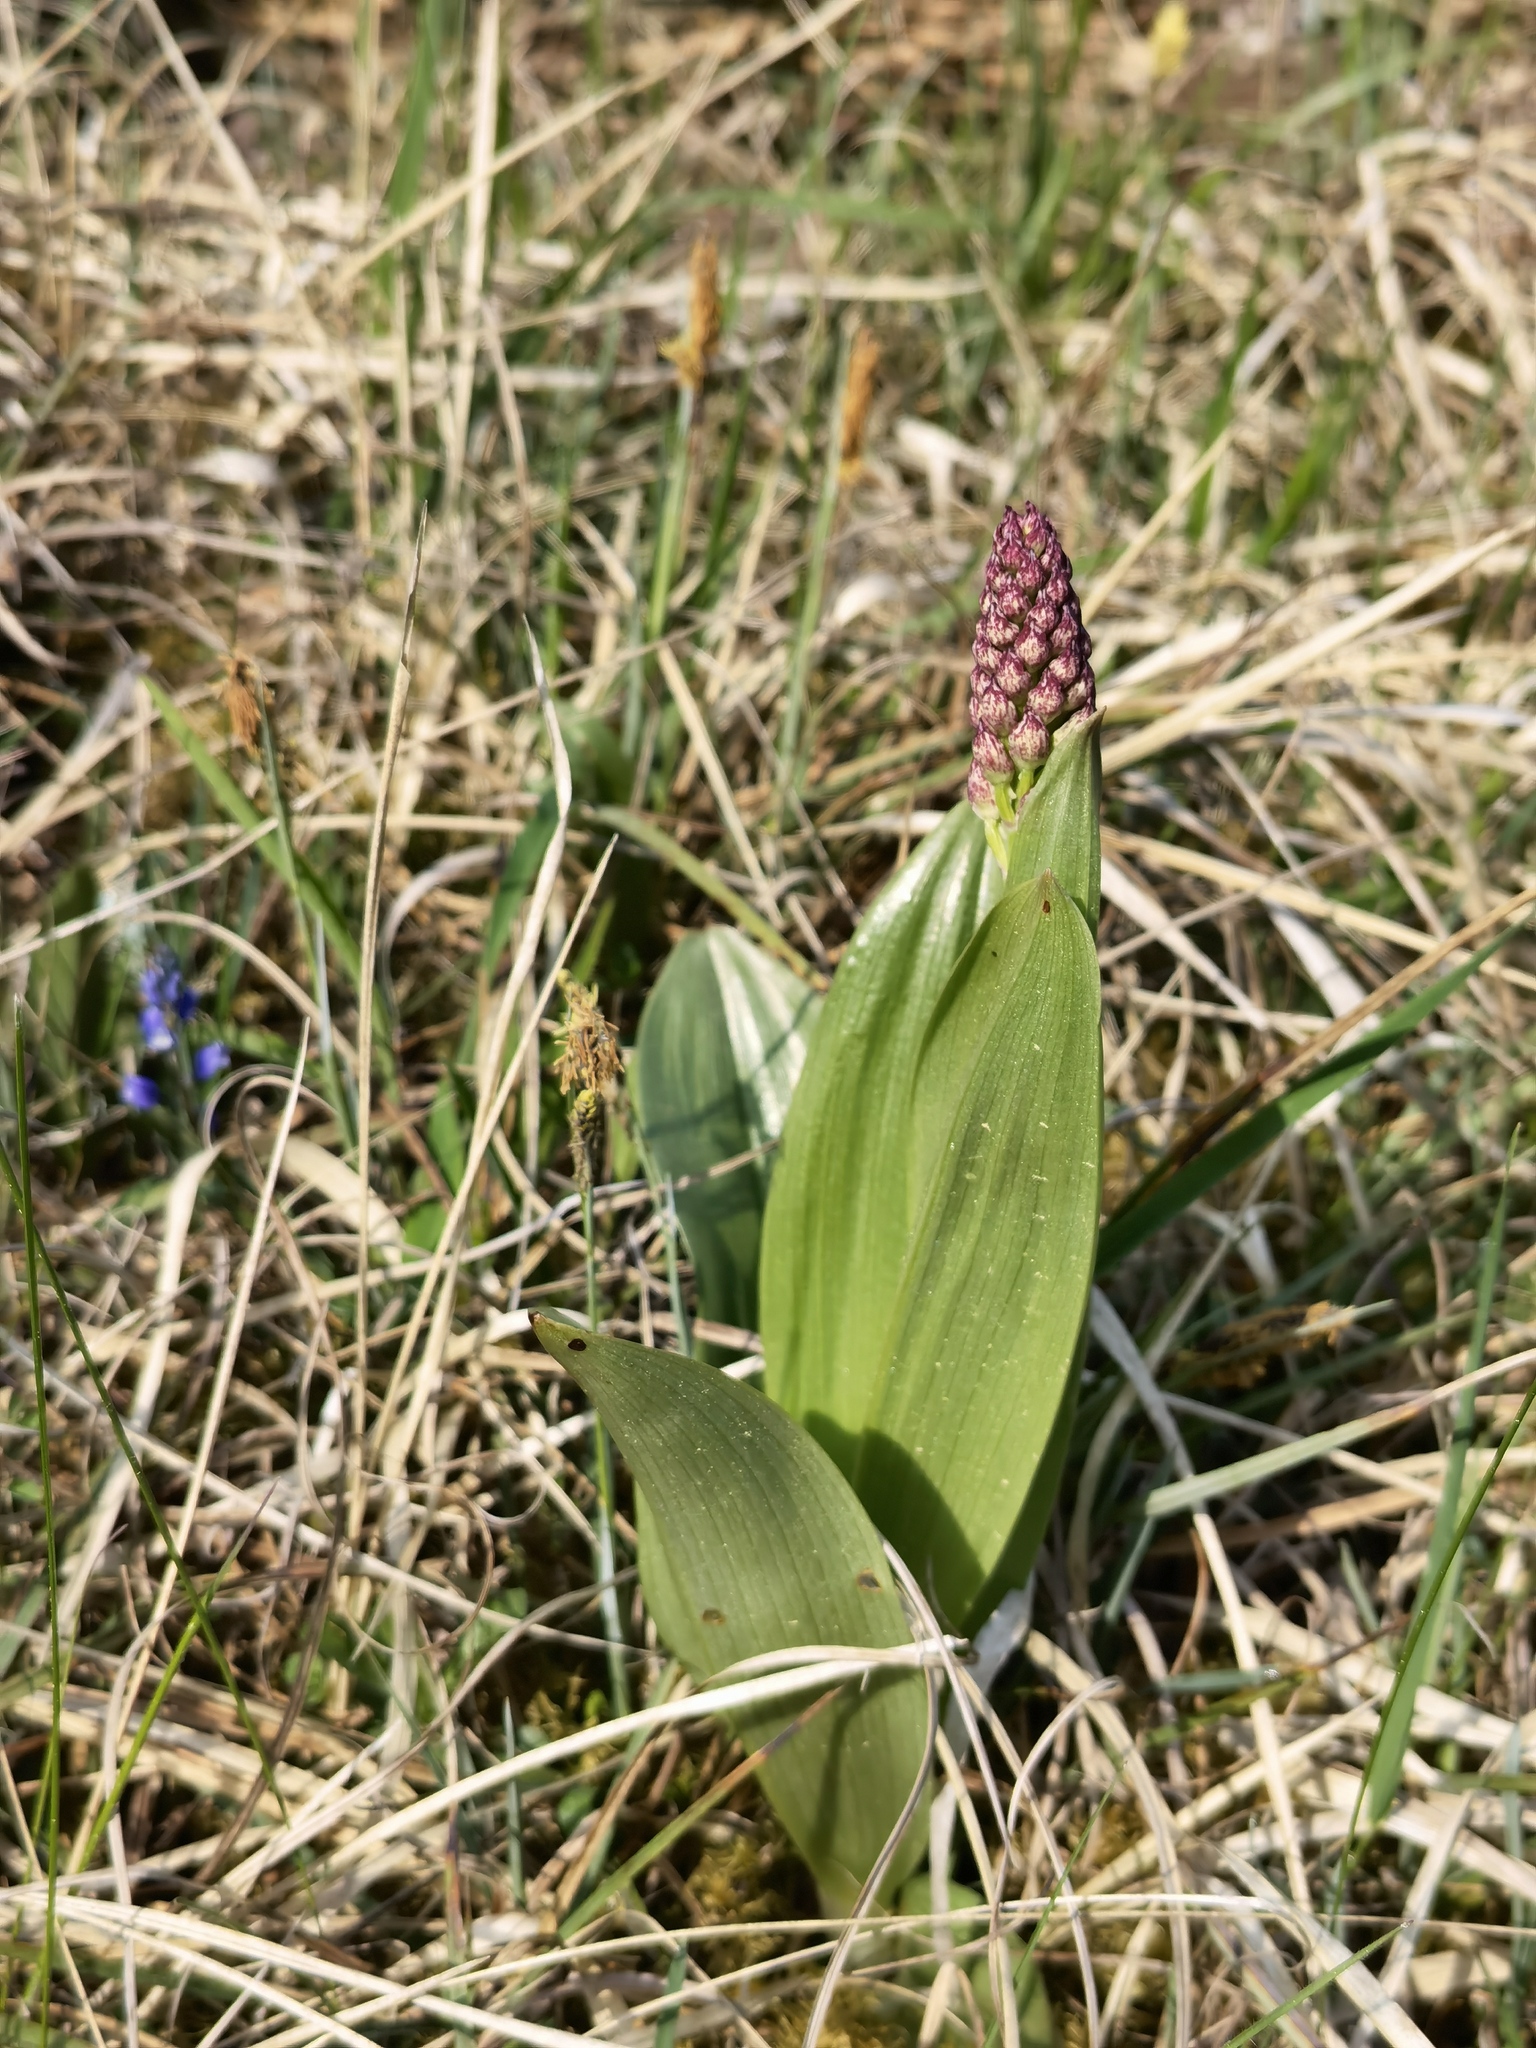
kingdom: Plantae
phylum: Tracheophyta
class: Liliopsida
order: Asparagales
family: Orchidaceae
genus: Orchis
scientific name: Orchis purpurea
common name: Lady orchid
